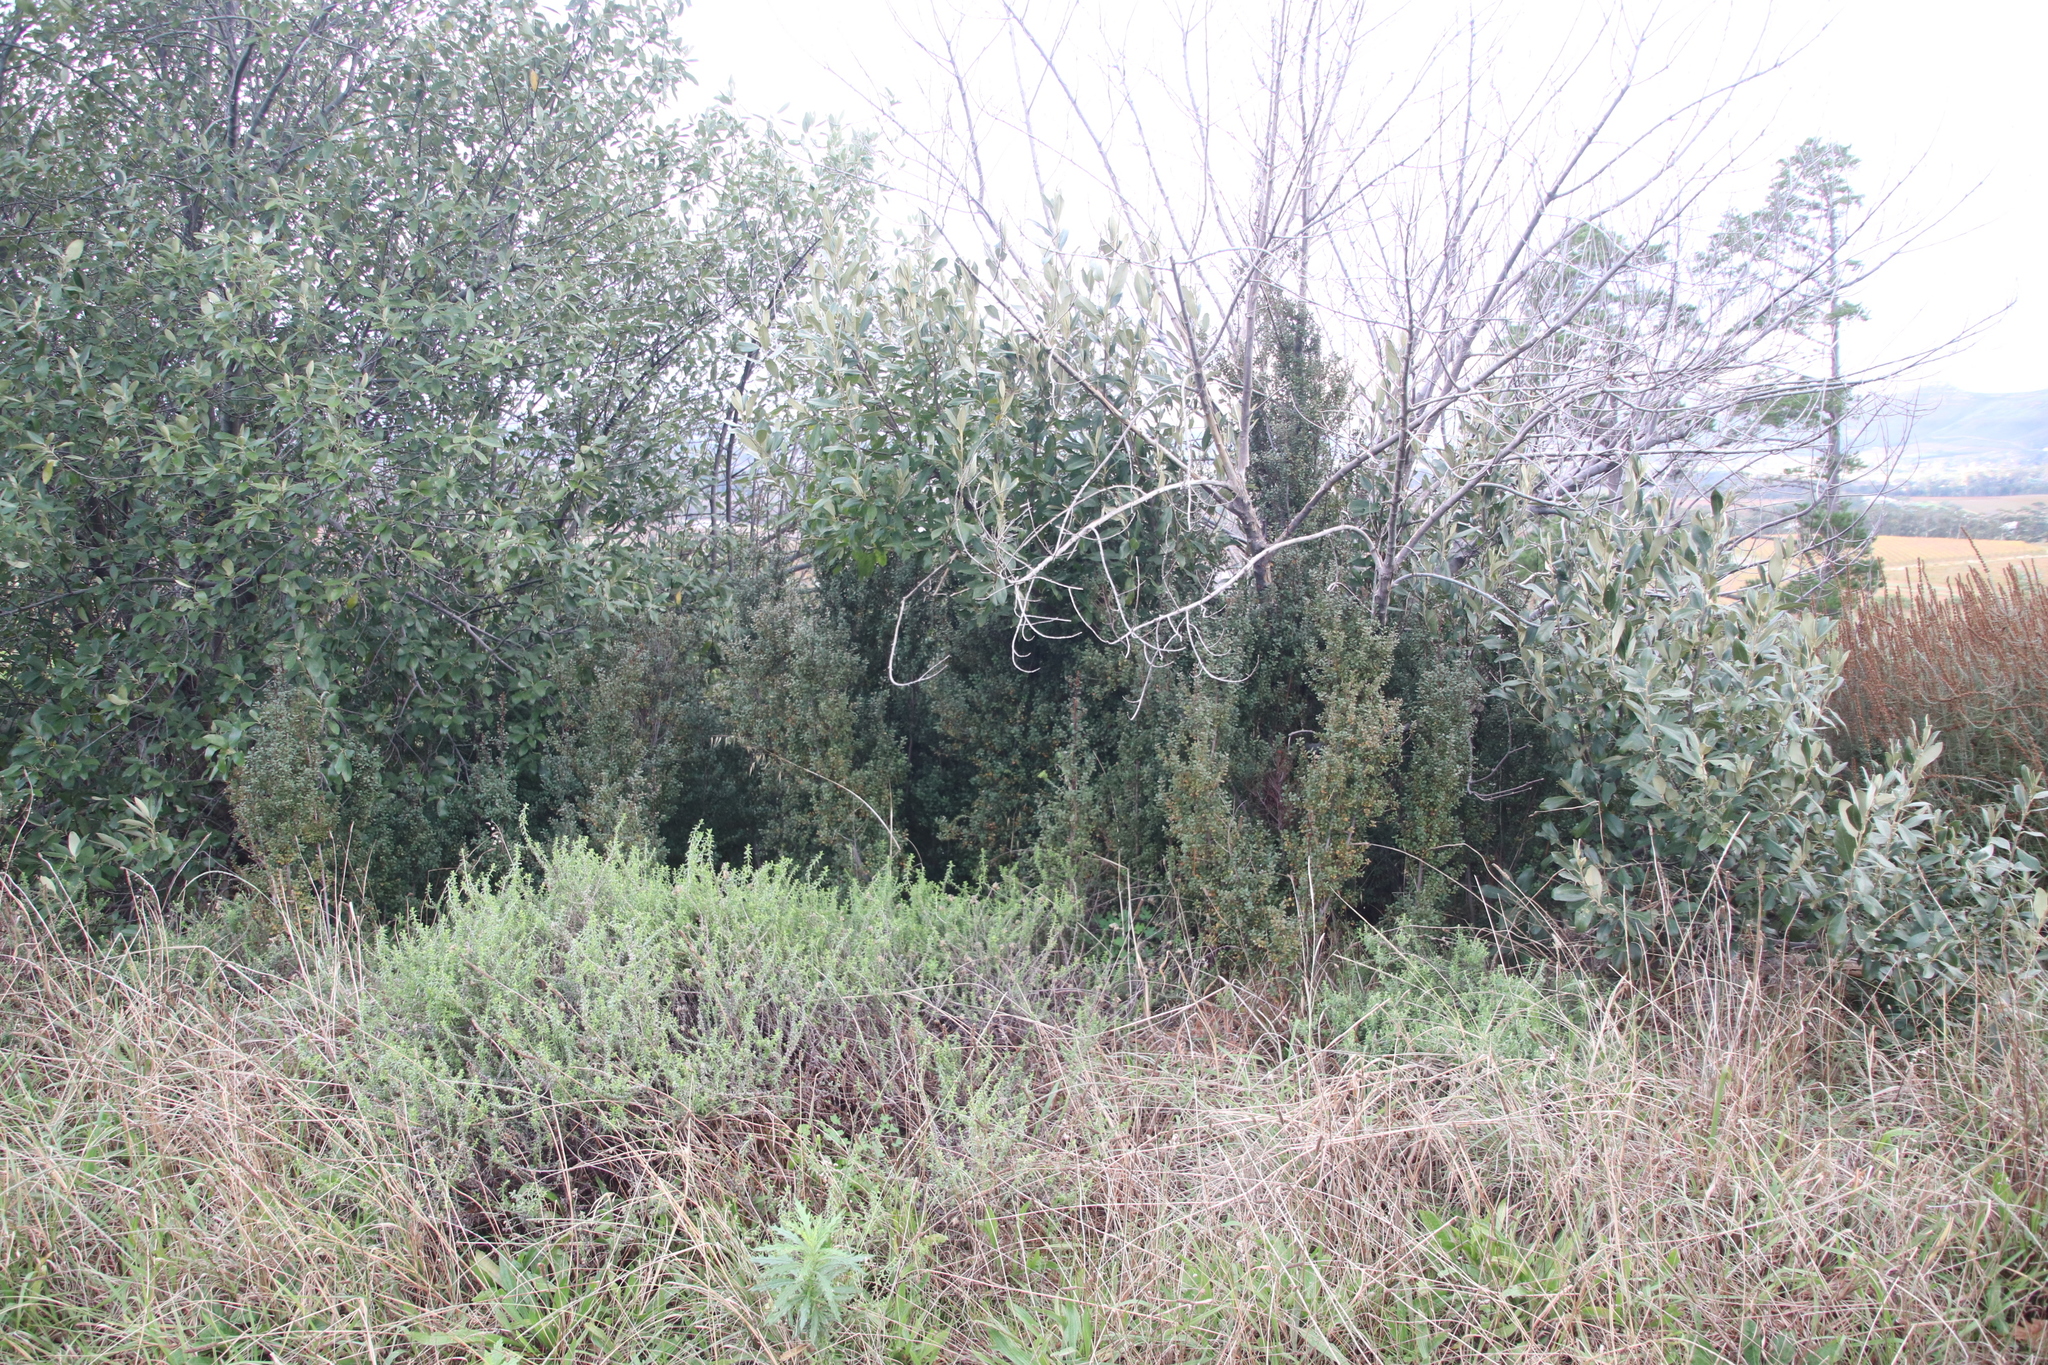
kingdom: Plantae
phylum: Tracheophyta
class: Magnoliopsida
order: Ericales
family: Primulaceae
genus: Myrsine
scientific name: Myrsine africana
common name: African-boxwood
